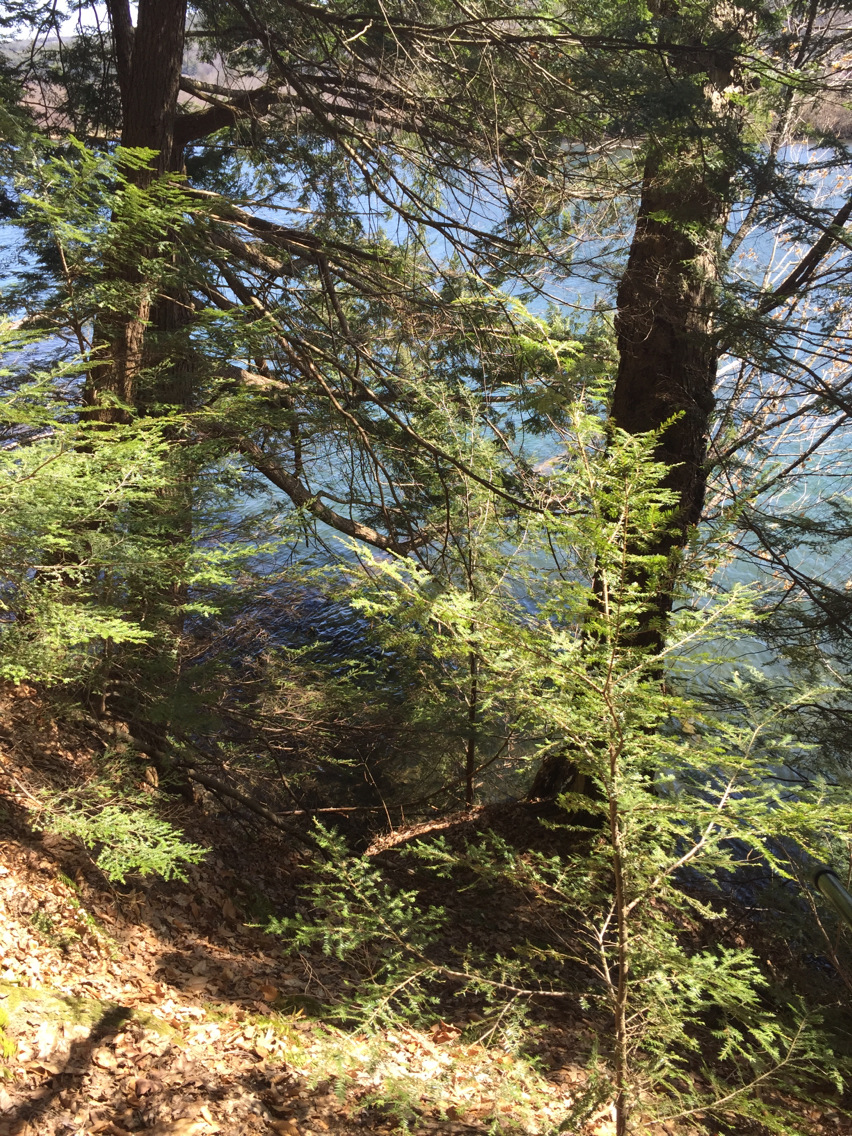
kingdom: Plantae
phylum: Tracheophyta
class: Pinopsida
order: Pinales
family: Pinaceae
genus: Tsuga
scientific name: Tsuga canadensis
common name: Eastern hemlock
